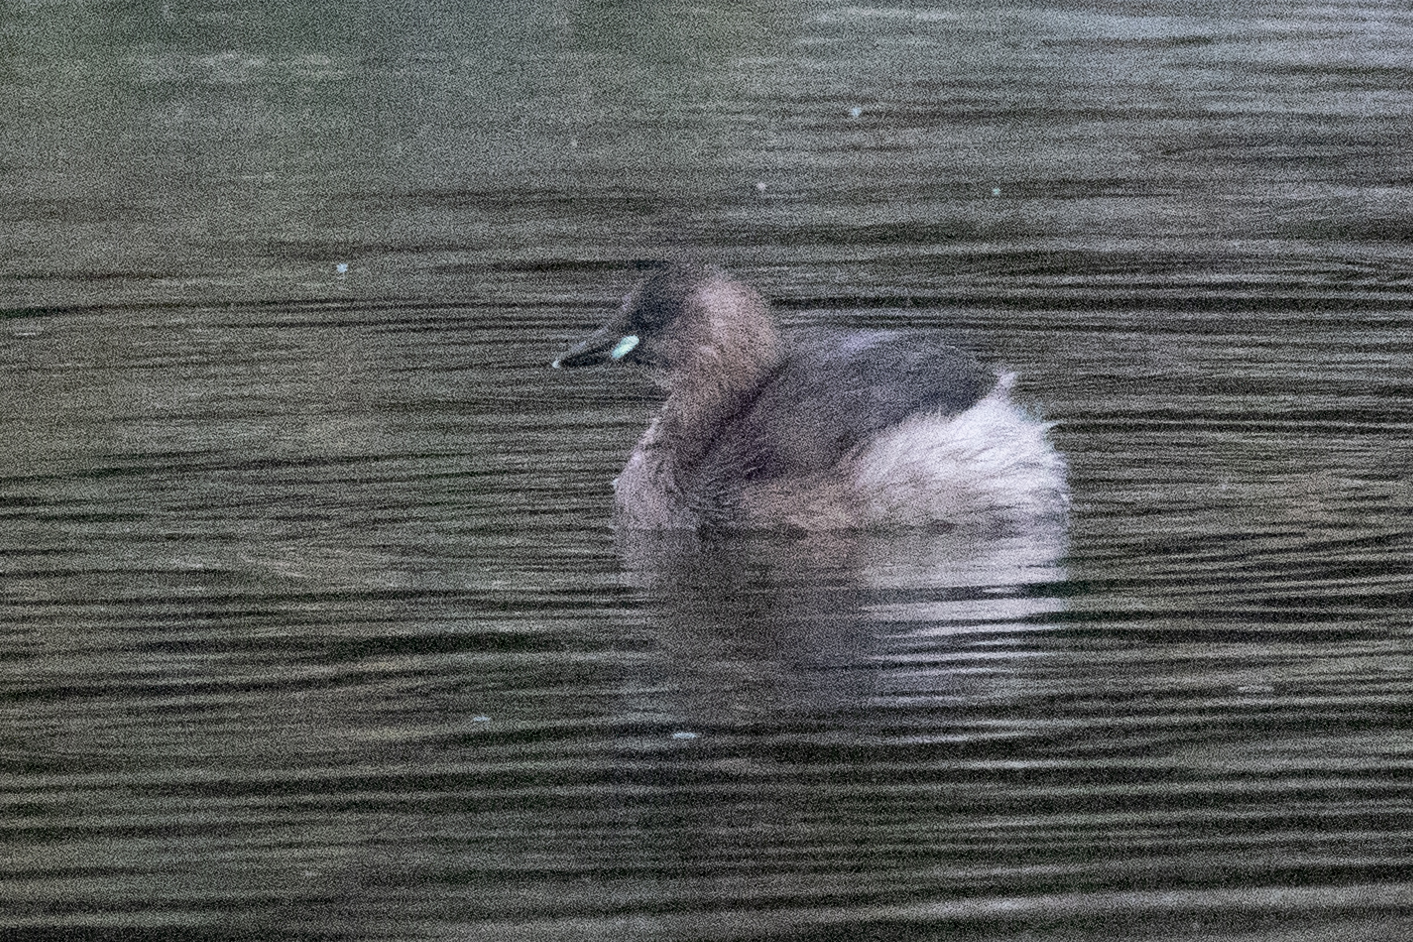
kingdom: Animalia
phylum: Chordata
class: Aves
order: Podicipediformes
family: Podicipedidae
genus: Tachybaptus
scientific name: Tachybaptus ruficollis
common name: Little grebe
